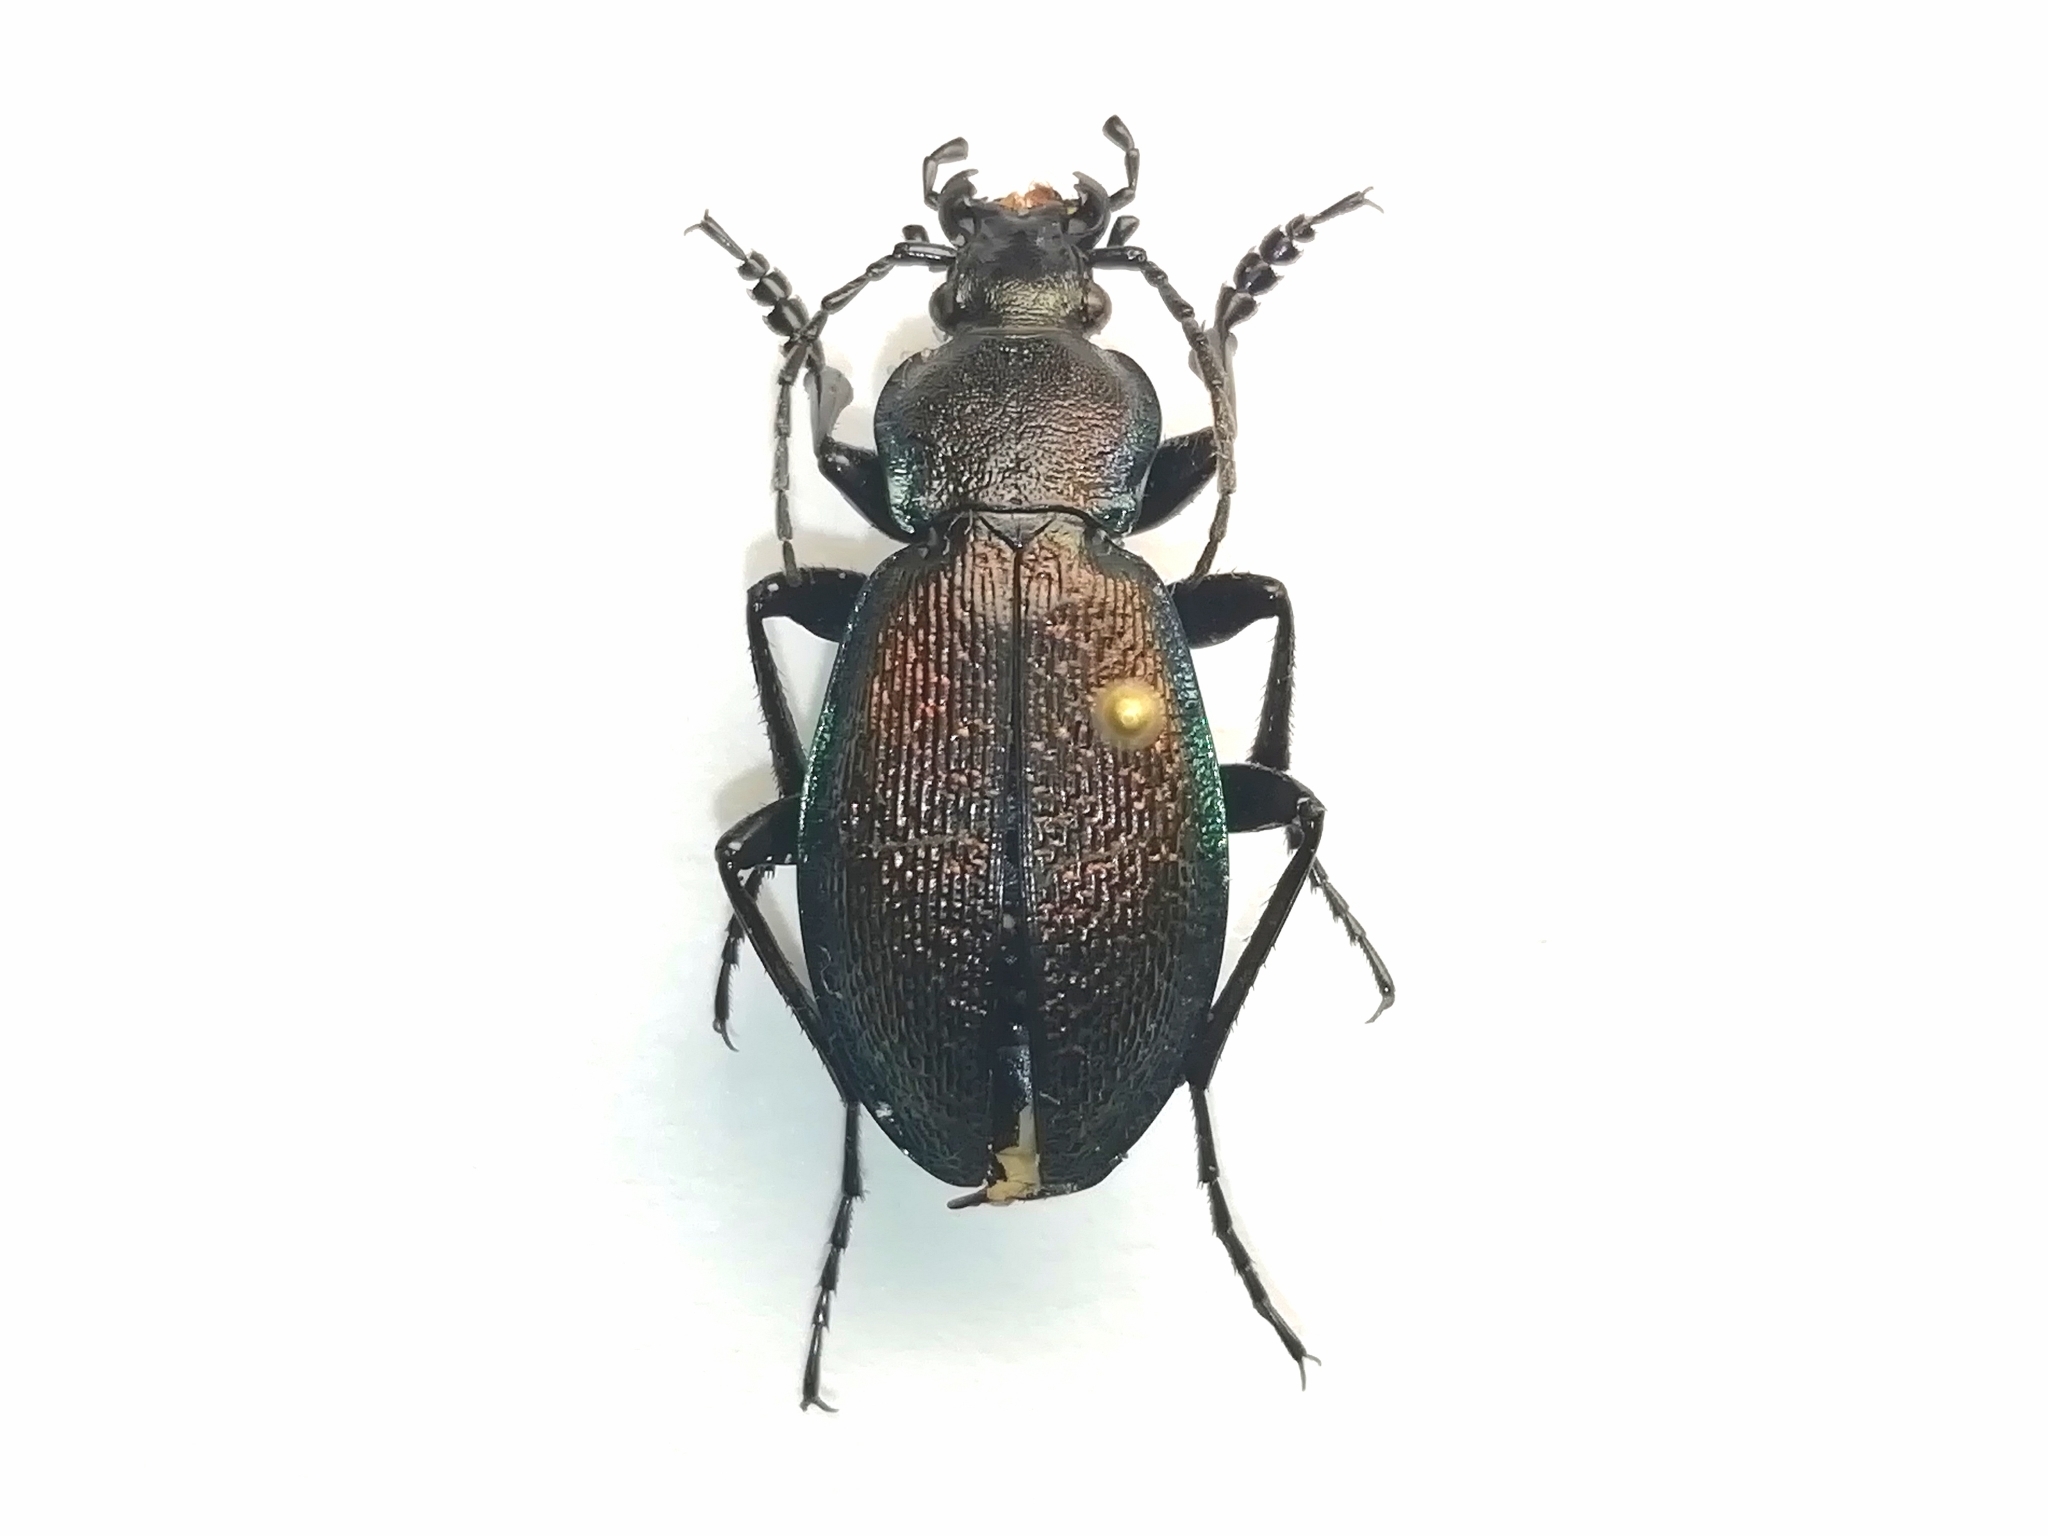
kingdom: Animalia
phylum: Arthropoda
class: Insecta
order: Coleoptera
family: Carabidae
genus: Carabus
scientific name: Carabus leachii
